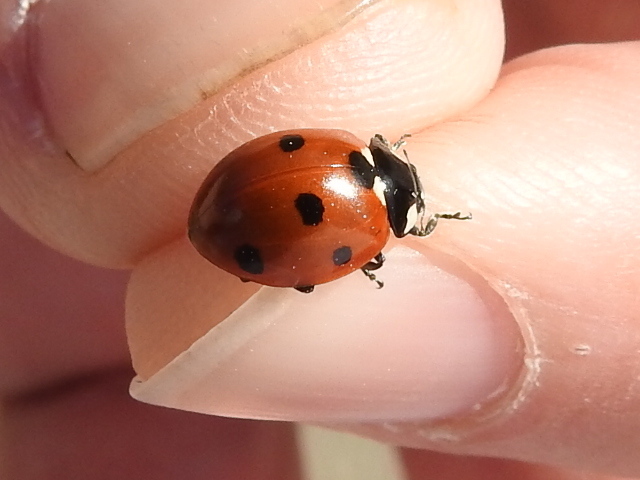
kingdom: Animalia
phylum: Arthropoda
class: Insecta
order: Coleoptera
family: Coccinellidae
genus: Coccinella
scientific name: Coccinella septempunctata
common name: Sevenspotted lady beetle
